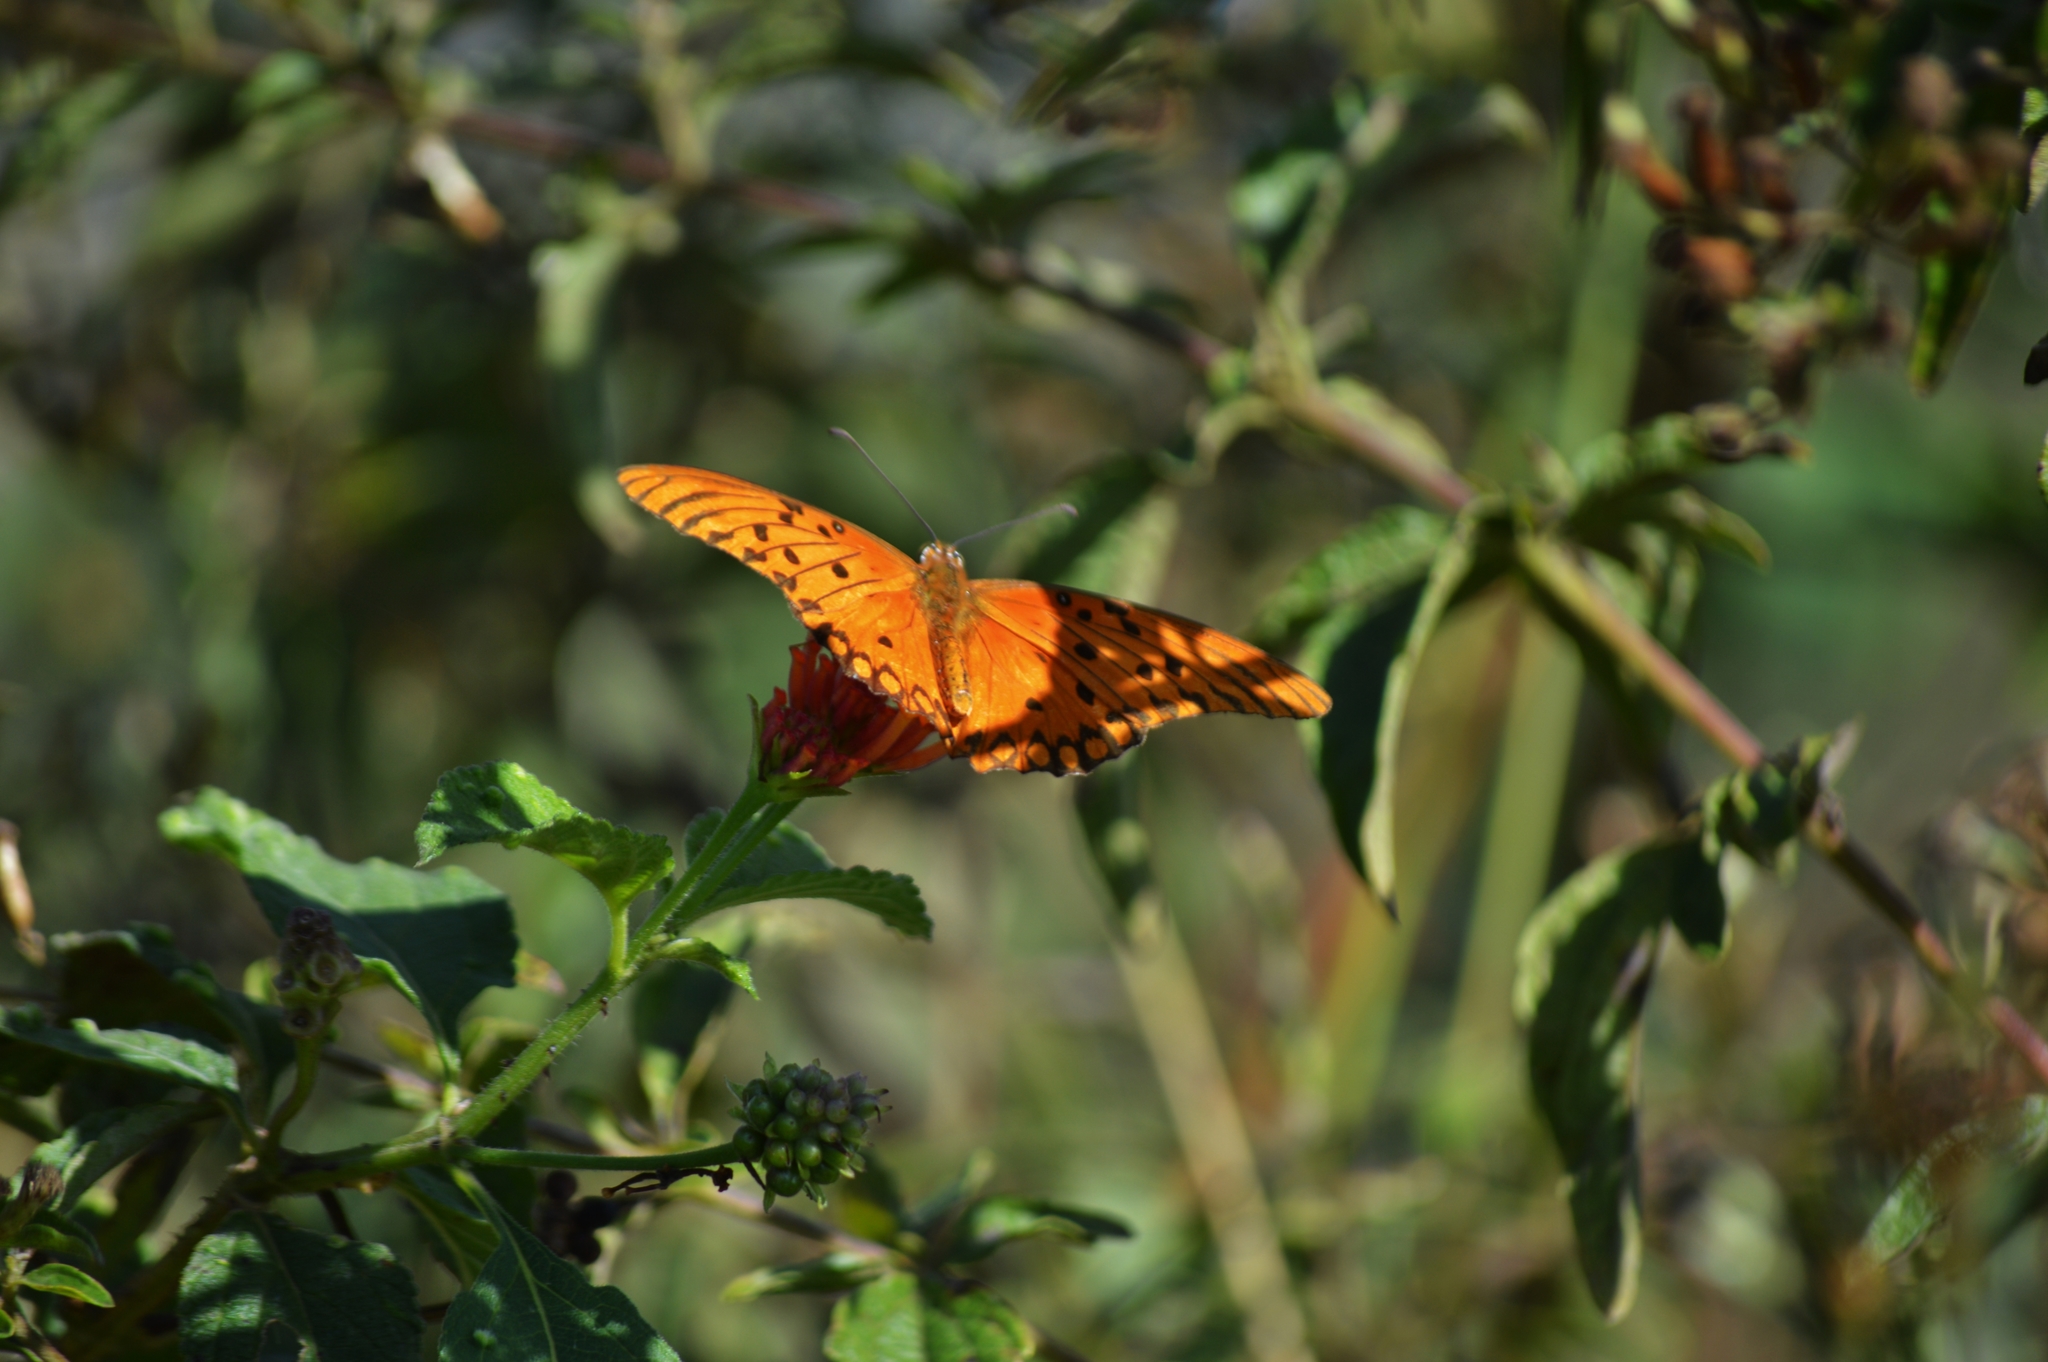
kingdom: Animalia
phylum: Arthropoda
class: Insecta
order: Lepidoptera
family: Nymphalidae
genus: Dione
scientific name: Dione vanillae
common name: Gulf fritillary
